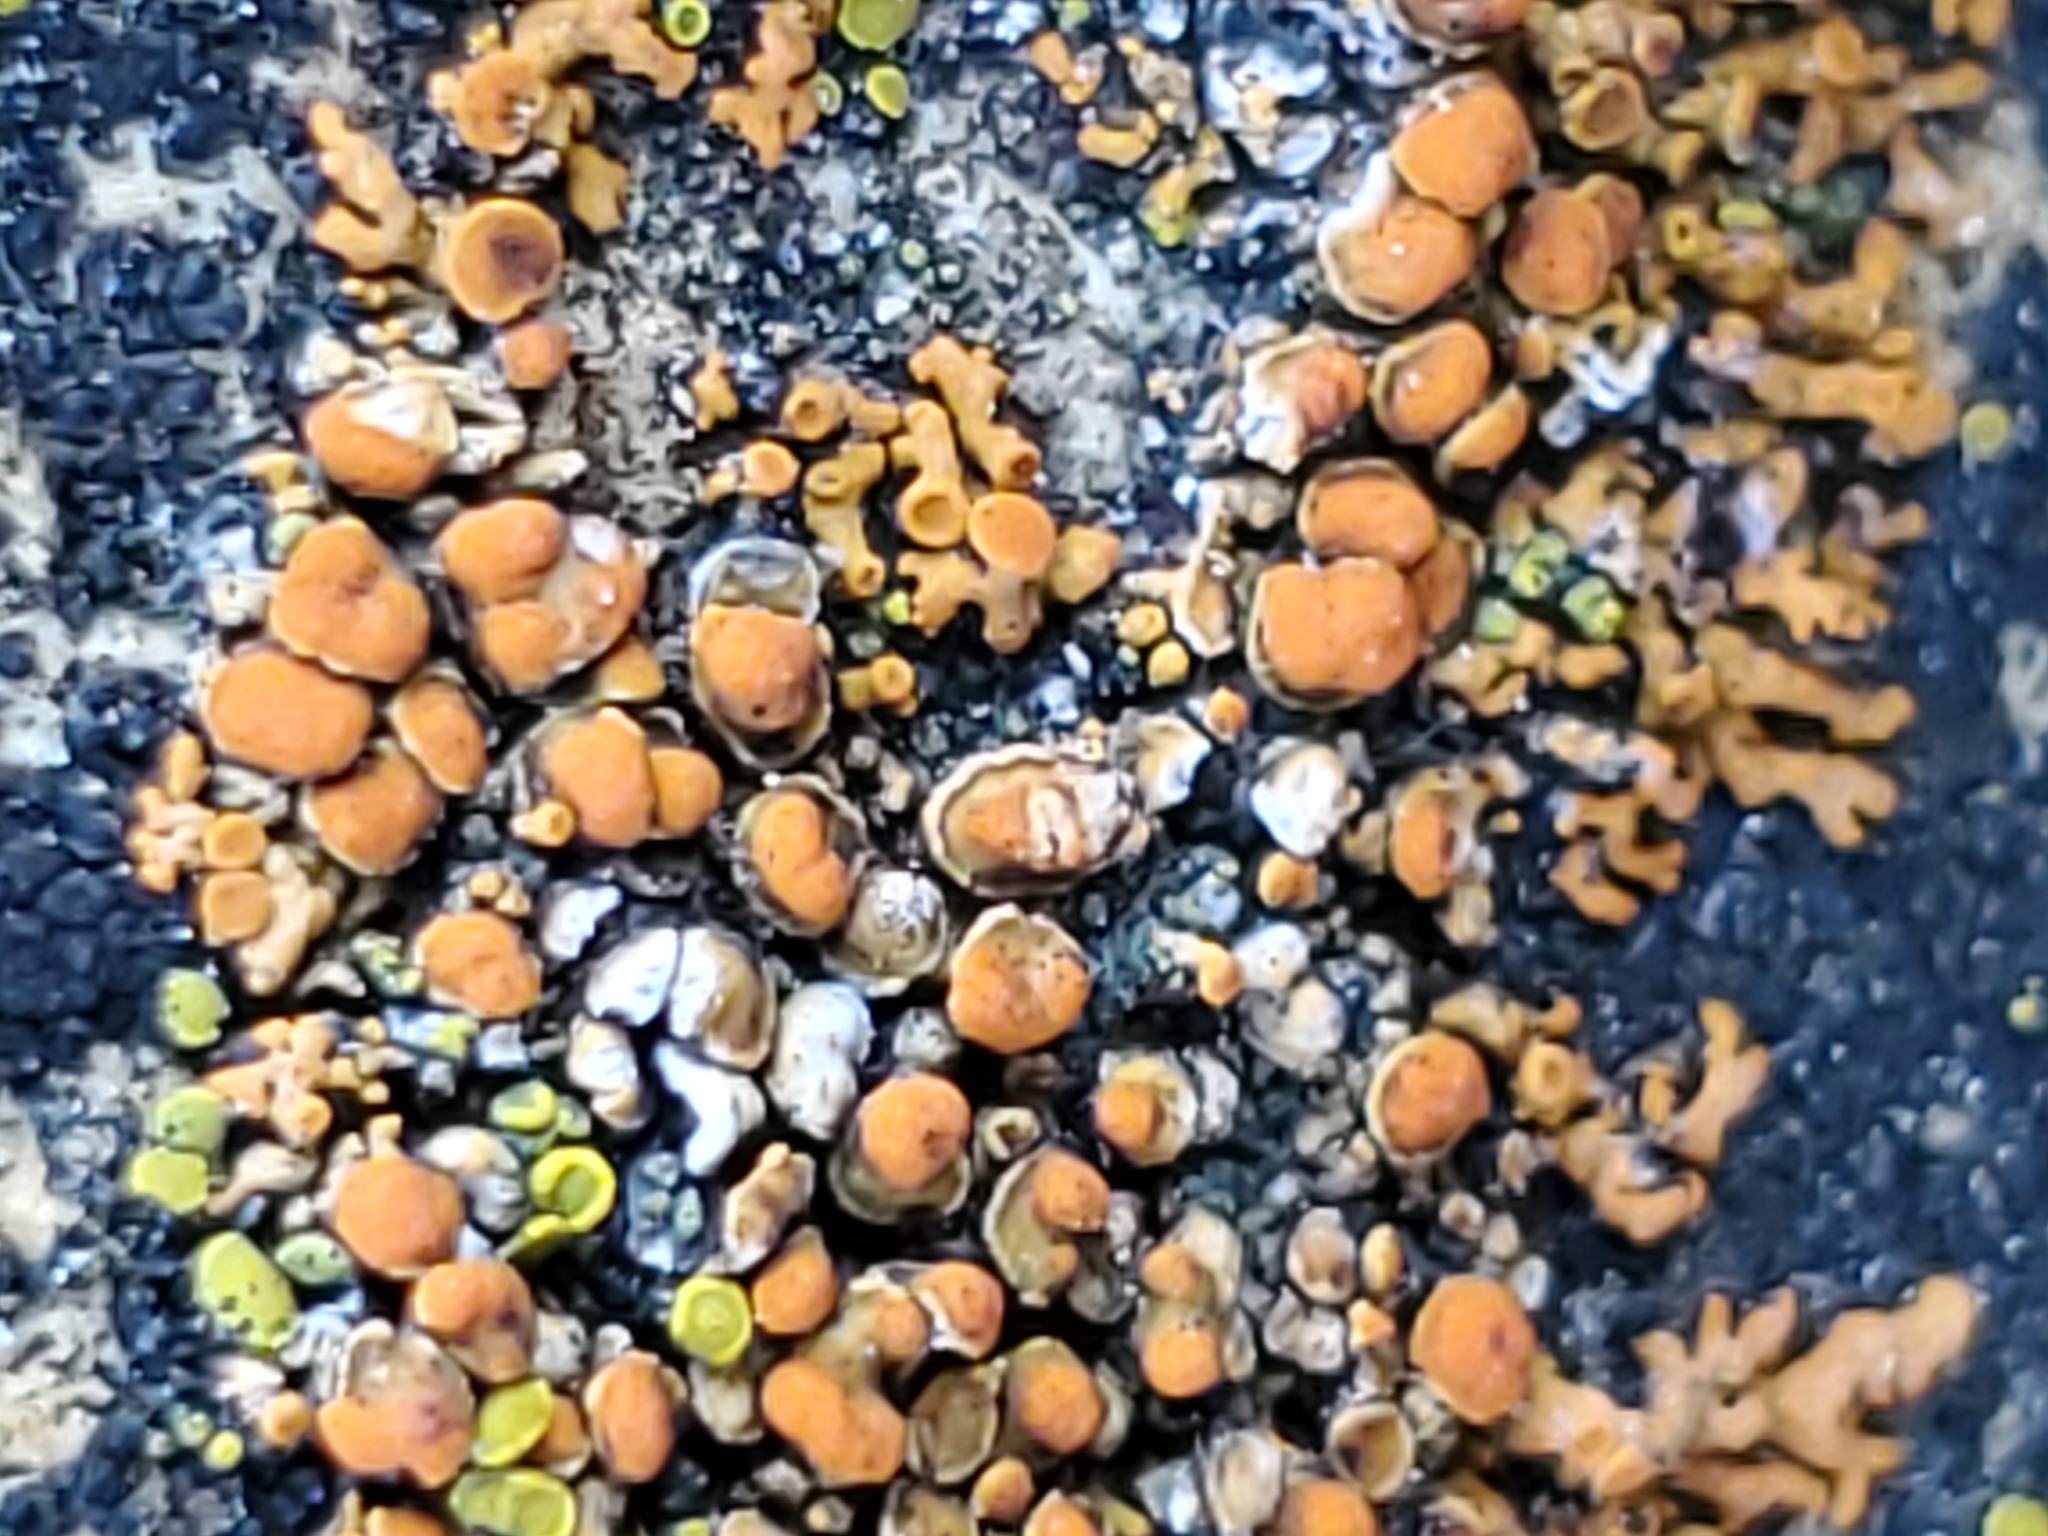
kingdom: Fungi
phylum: Ascomycota
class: Lecanoromycetes
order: Lecanorales
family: Lecanoraceae
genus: Omphalodina
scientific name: Omphalodina chrysoleuca
